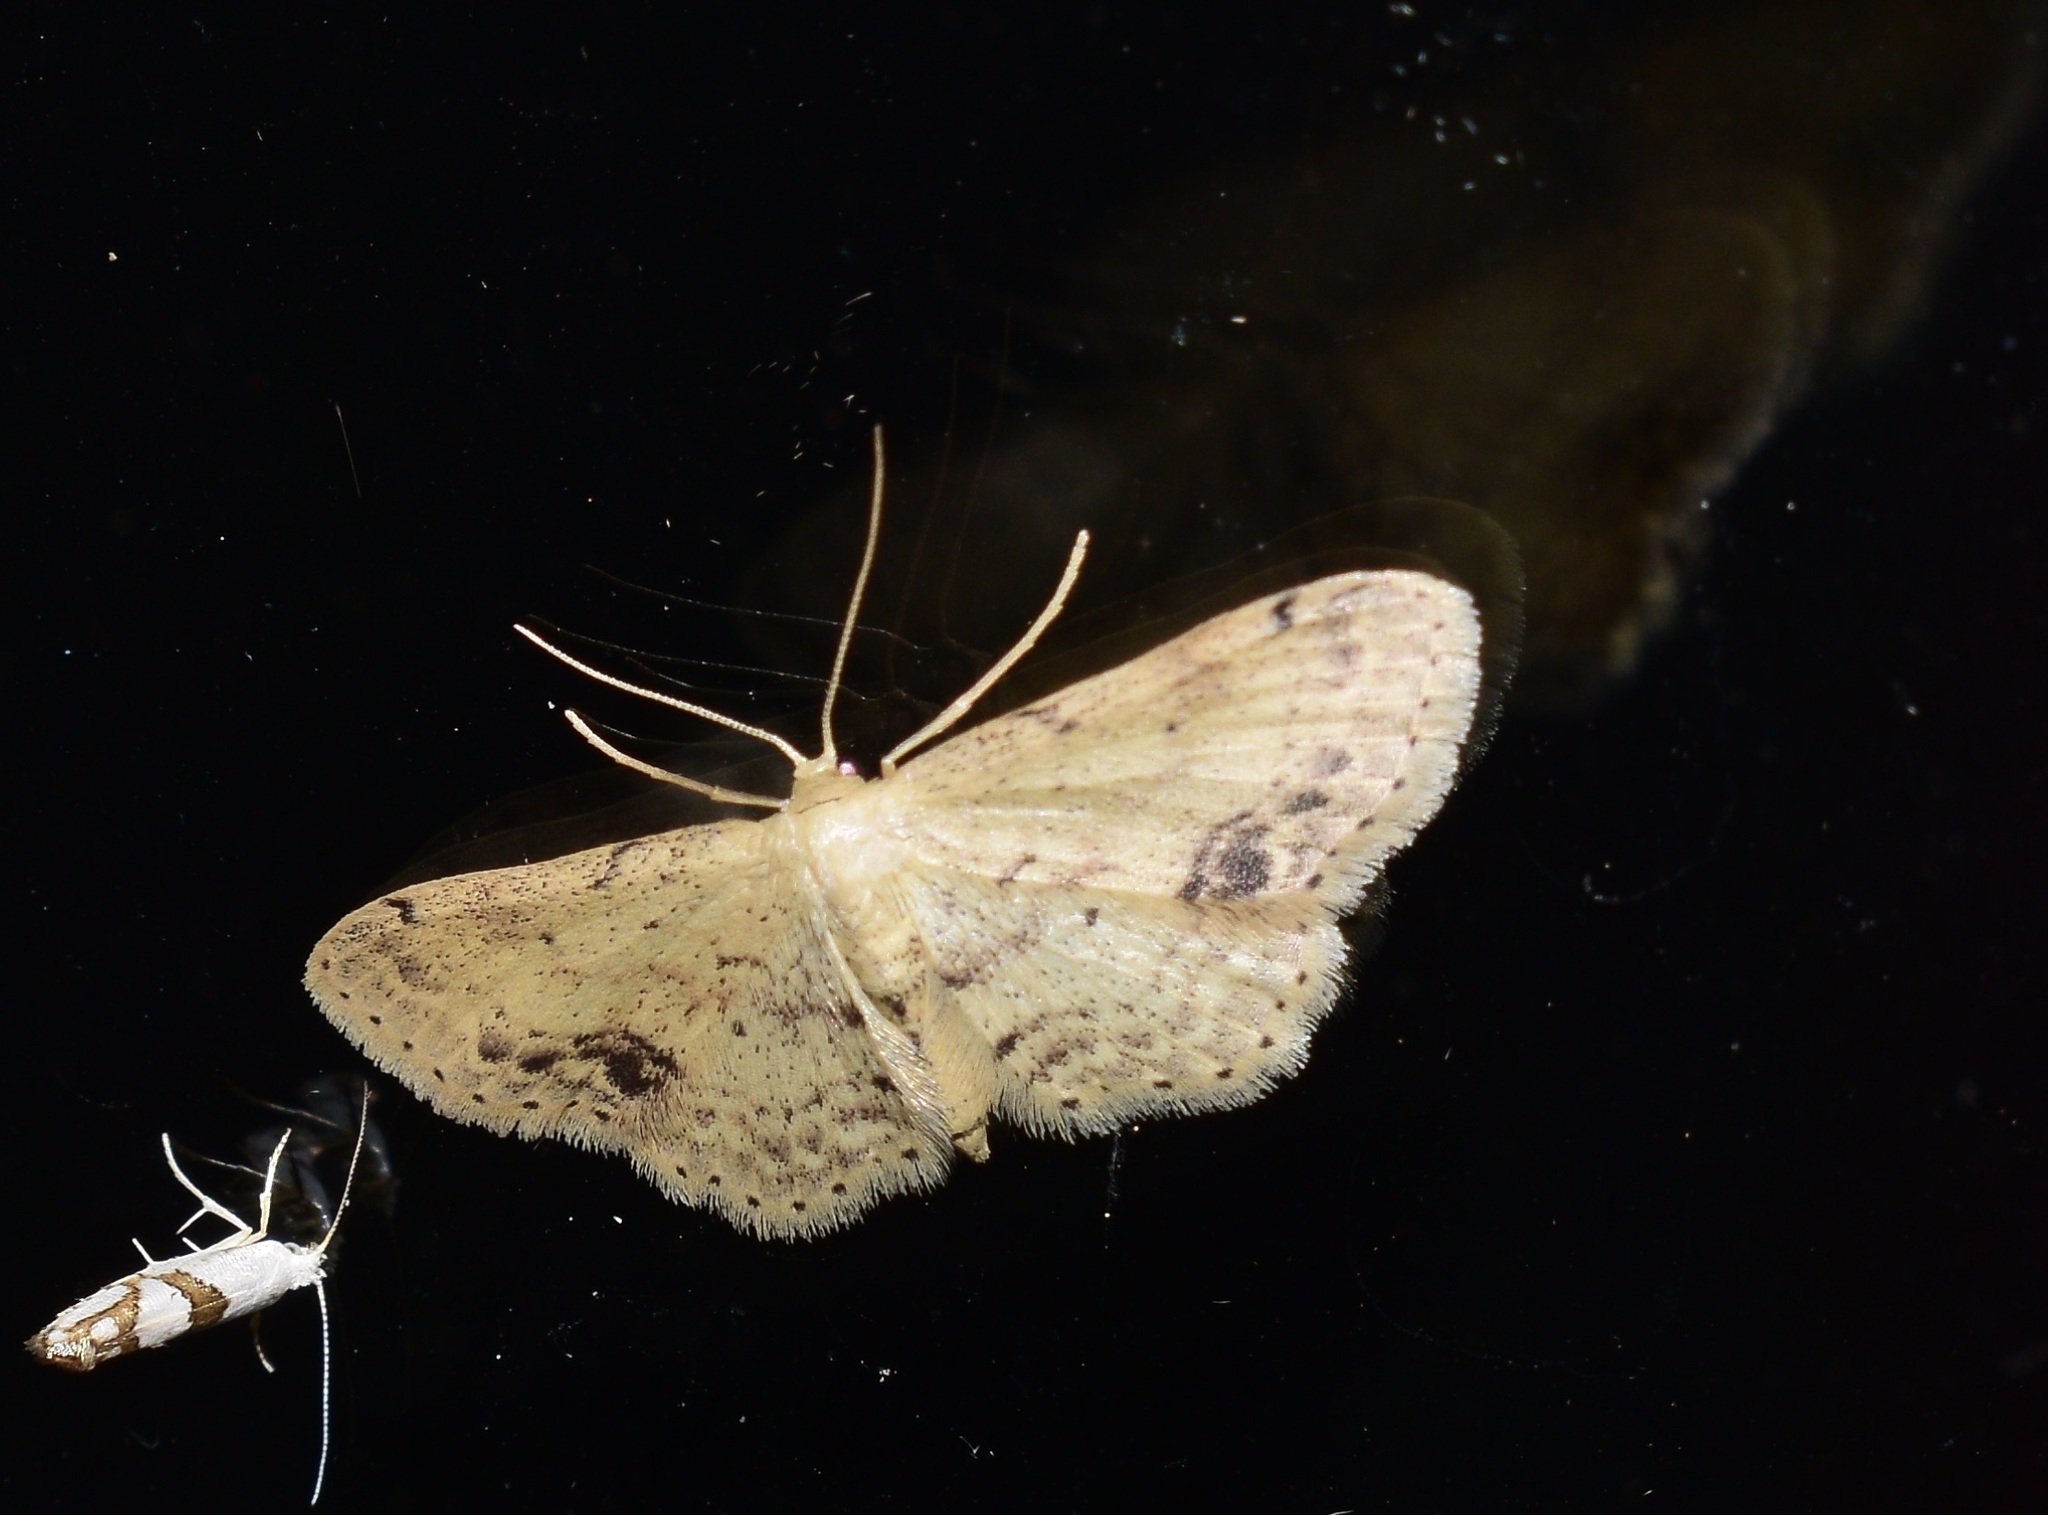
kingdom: Animalia
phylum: Arthropoda
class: Insecta
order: Lepidoptera
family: Geometridae
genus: Idaea
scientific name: Idaea dimidiata
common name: Single-dotted wave
